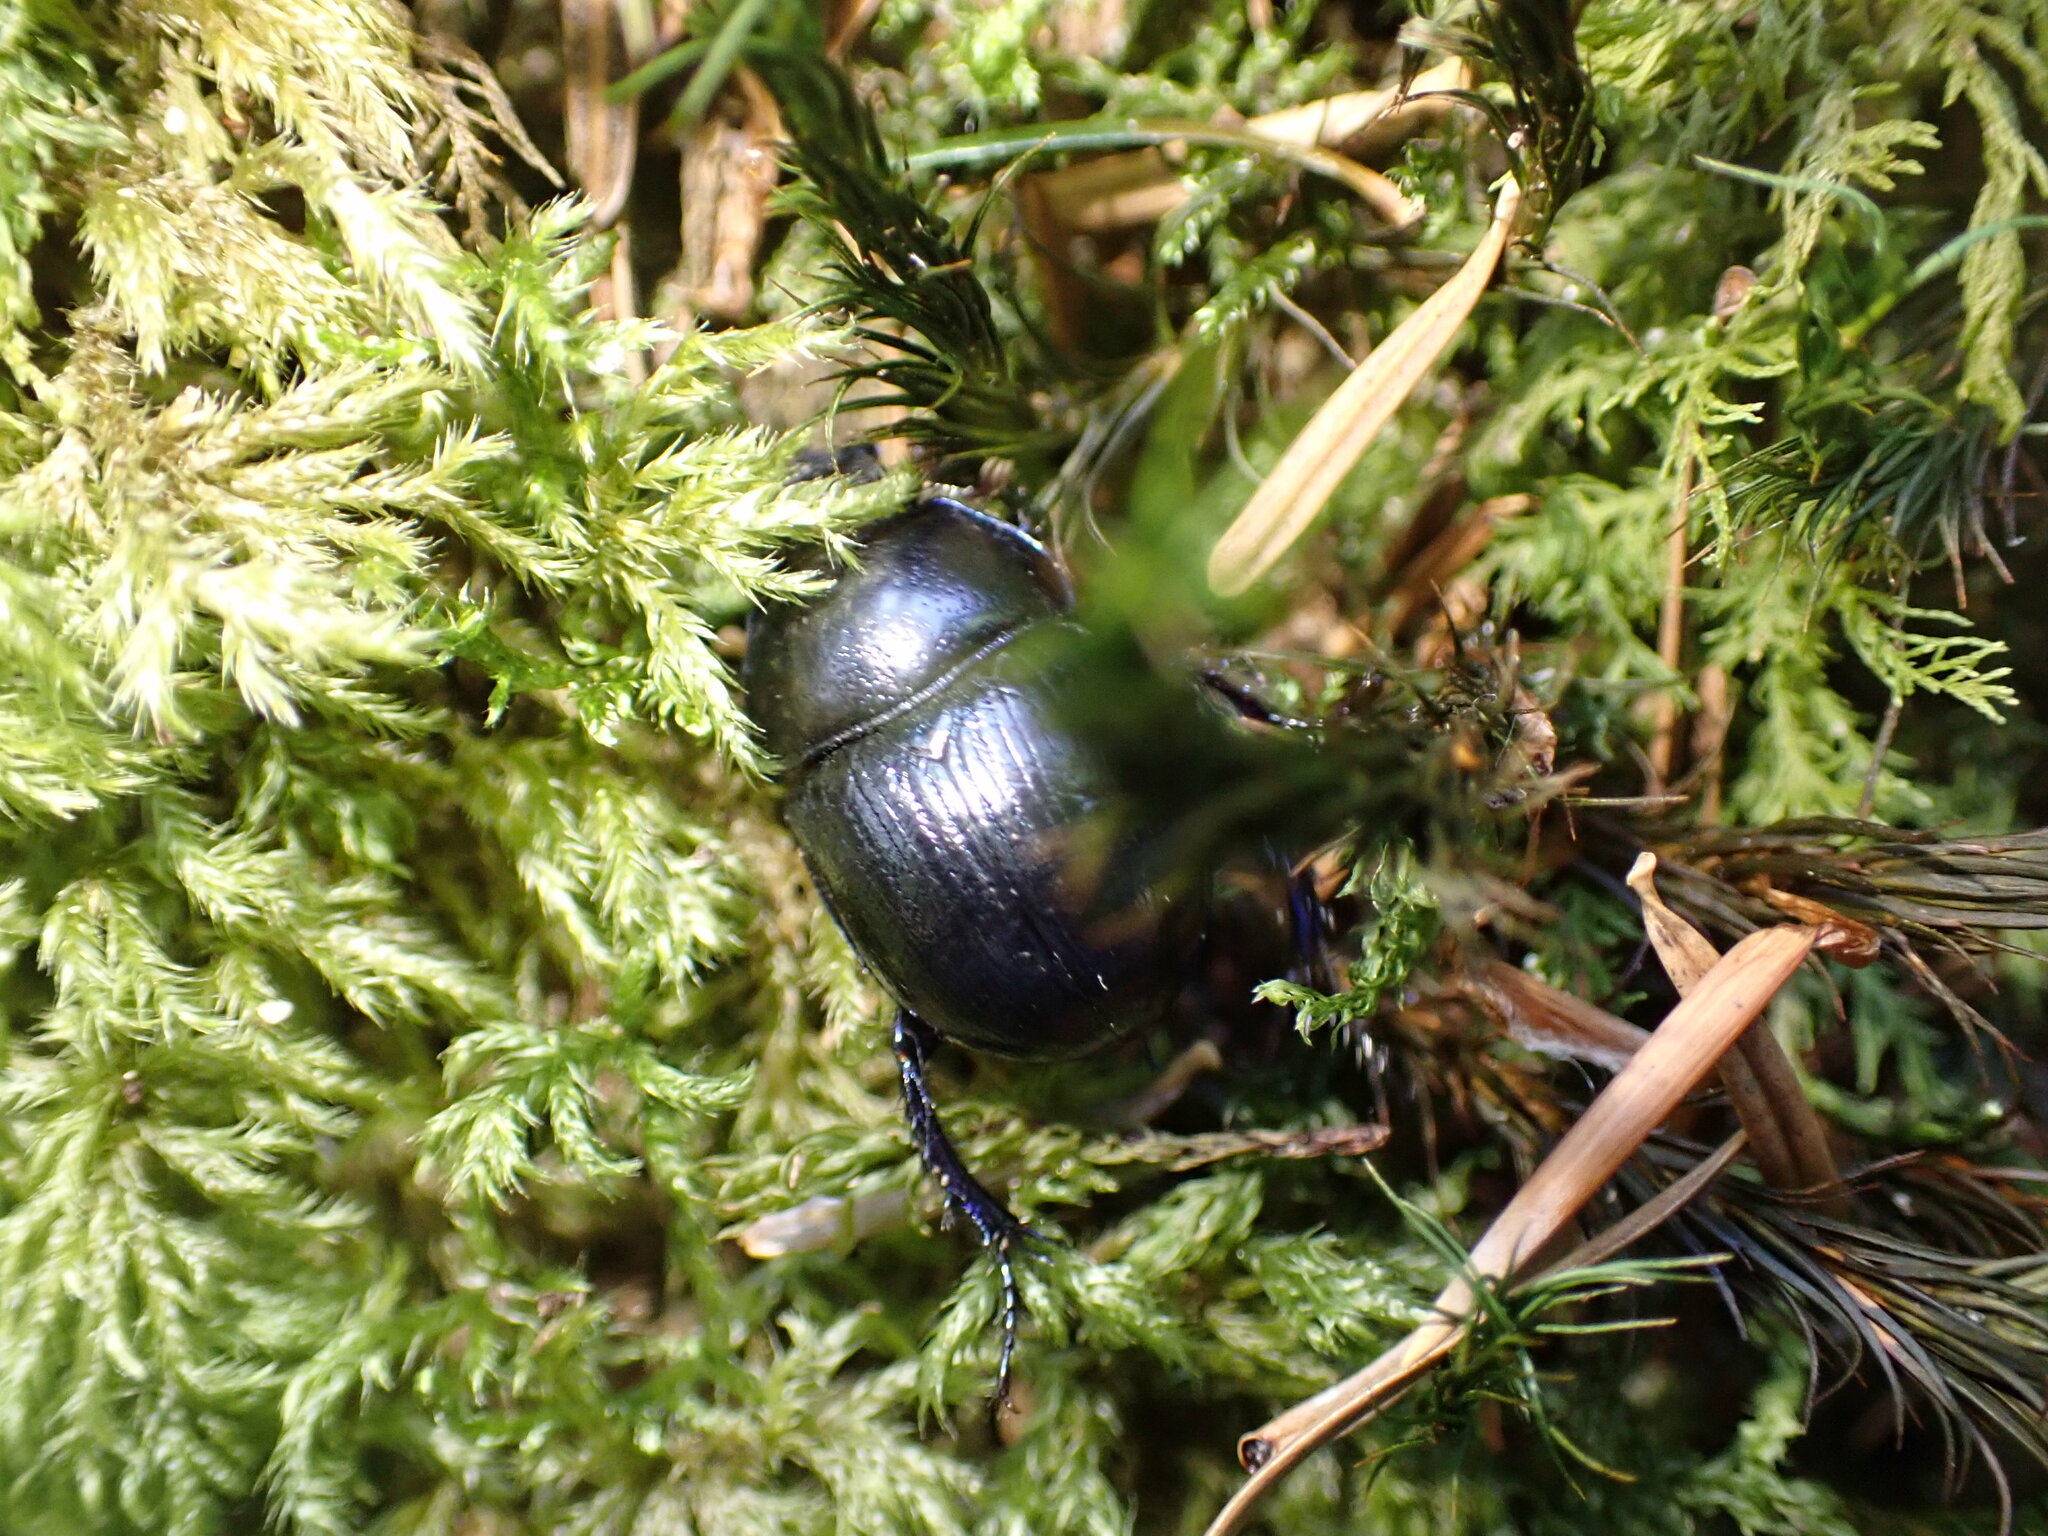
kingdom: Animalia
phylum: Arthropoda
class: Insecta
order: Coleoptera
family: Geotrupidae
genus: Anoplotrupes
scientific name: Anoplotrupes stercorosus
